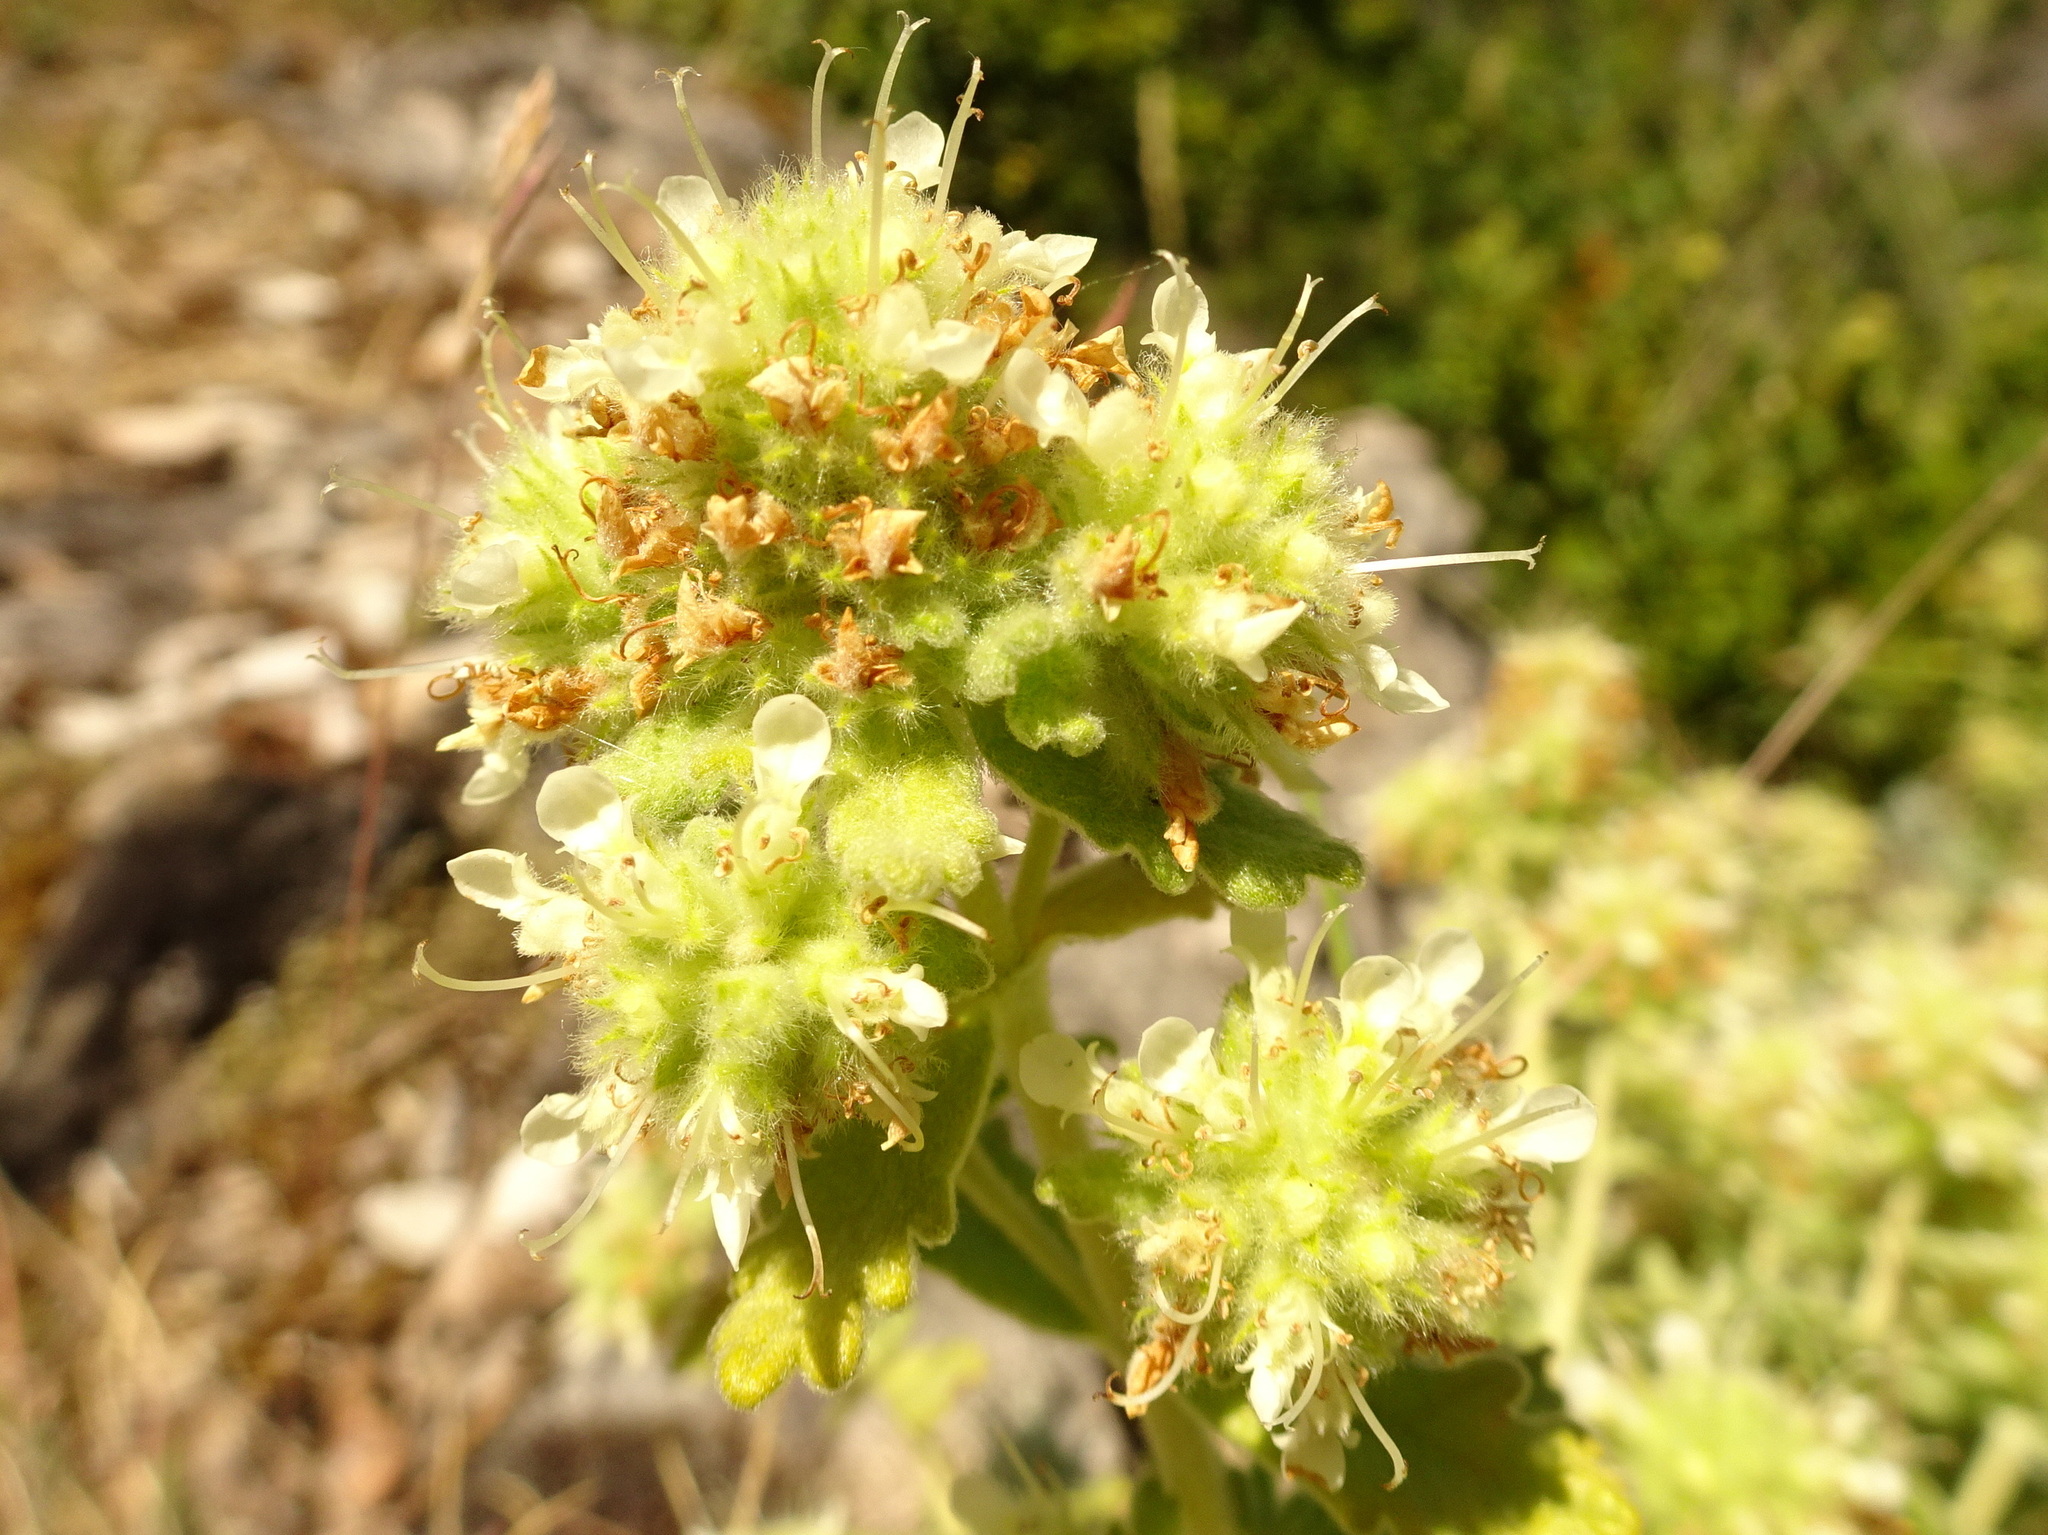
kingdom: Plantae
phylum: Tracheophyta
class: Magnoliopsida
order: Lamiales
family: Lamiaceae
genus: Teucrium
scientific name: Teucrium polium
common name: Poley
